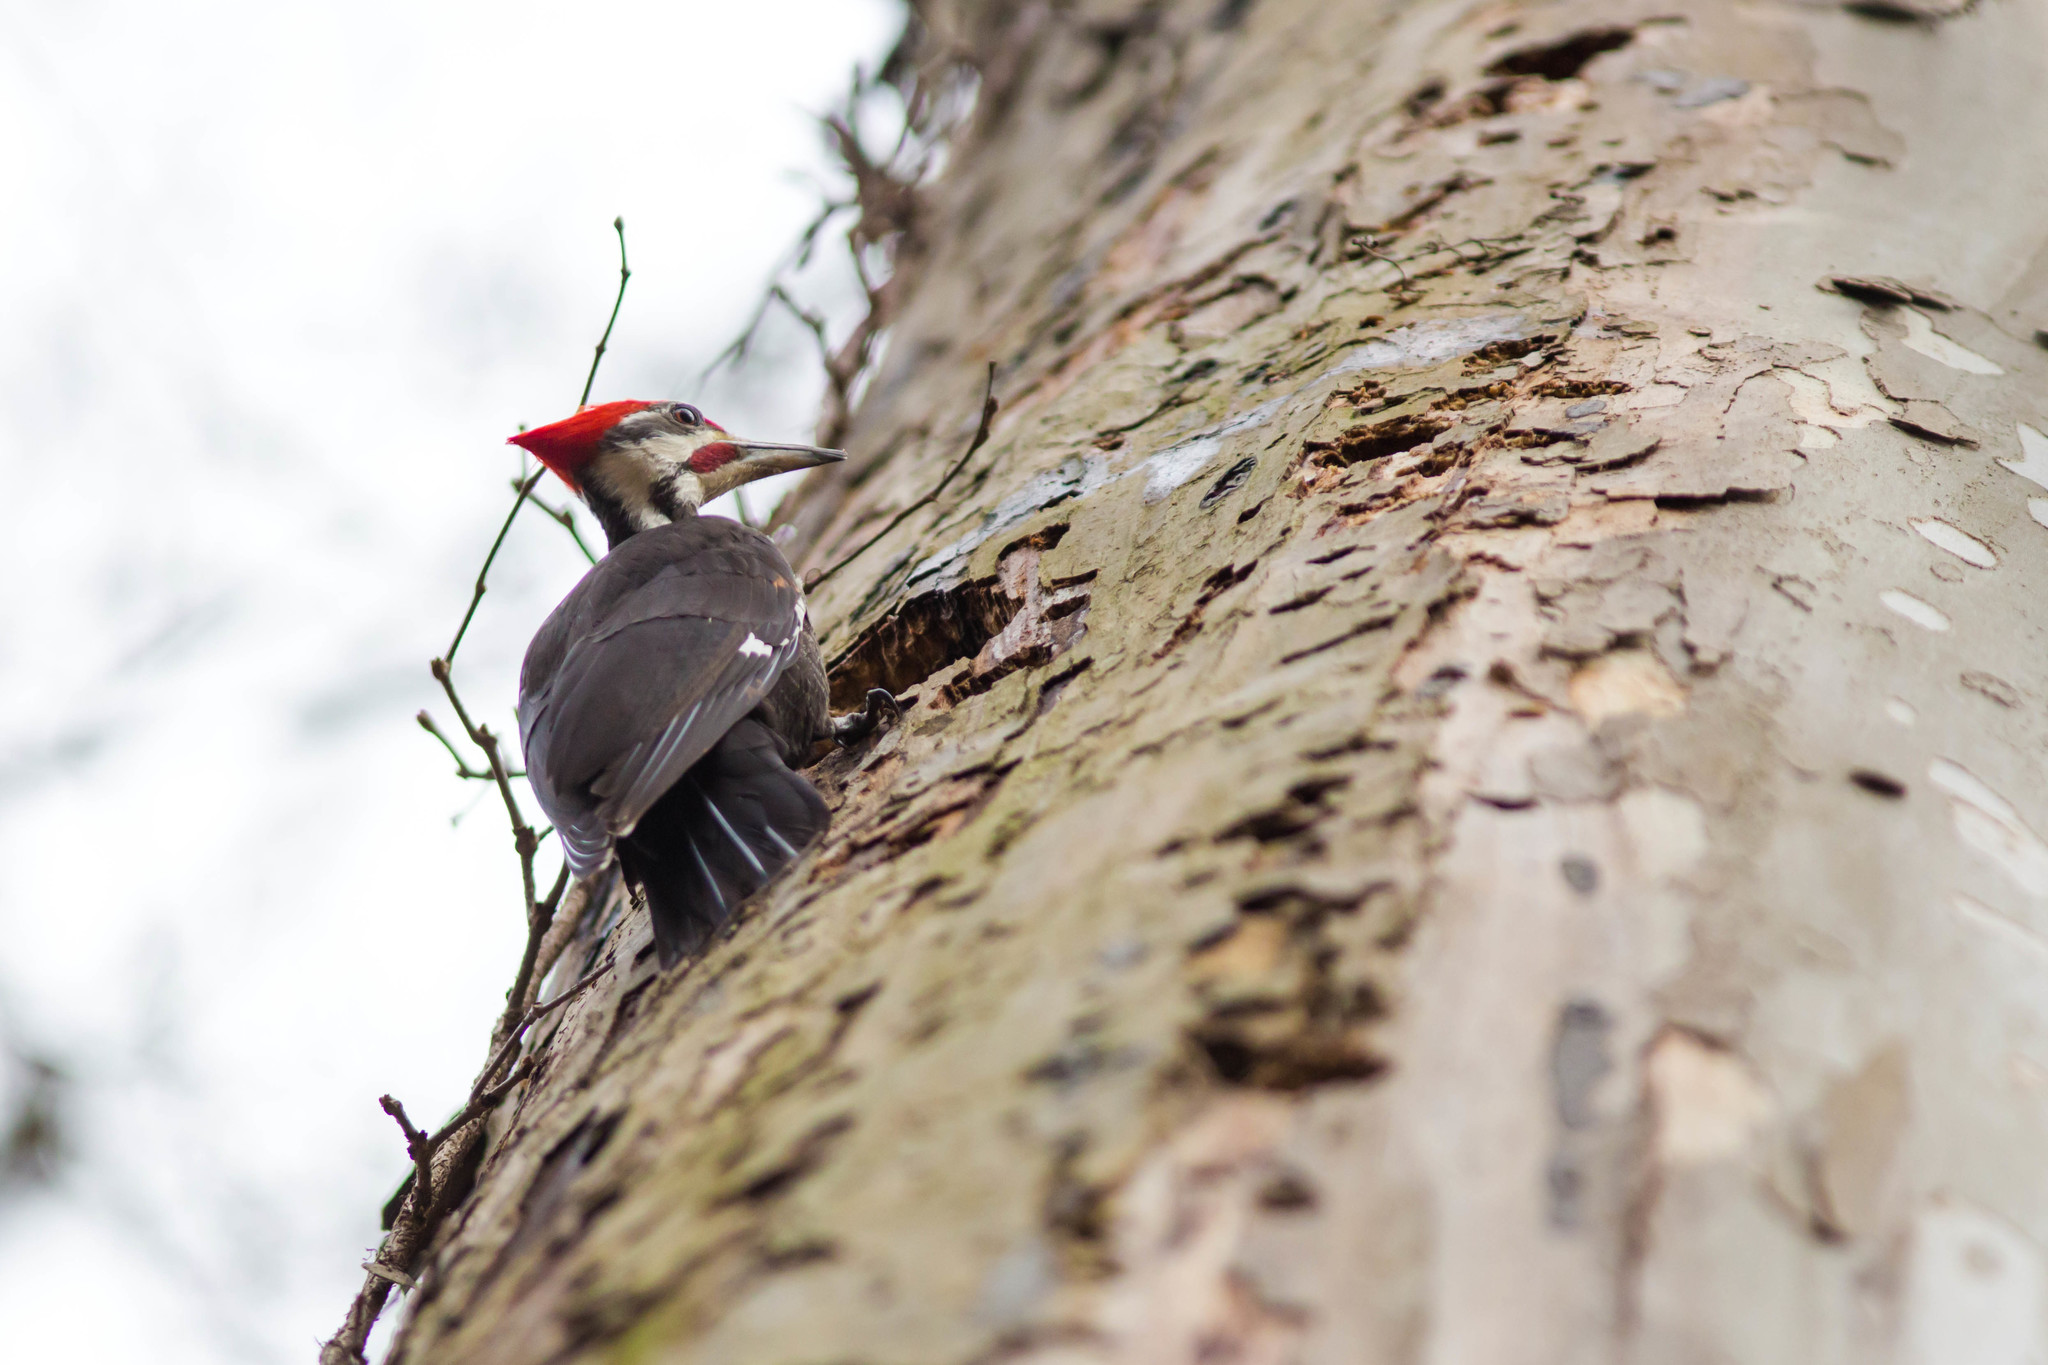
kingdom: Animalia
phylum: Chordata
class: Aves
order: Piciformes
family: Picidae
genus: Dryocopus
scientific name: Dryocopus pileatus
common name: Pileated woodpecker
